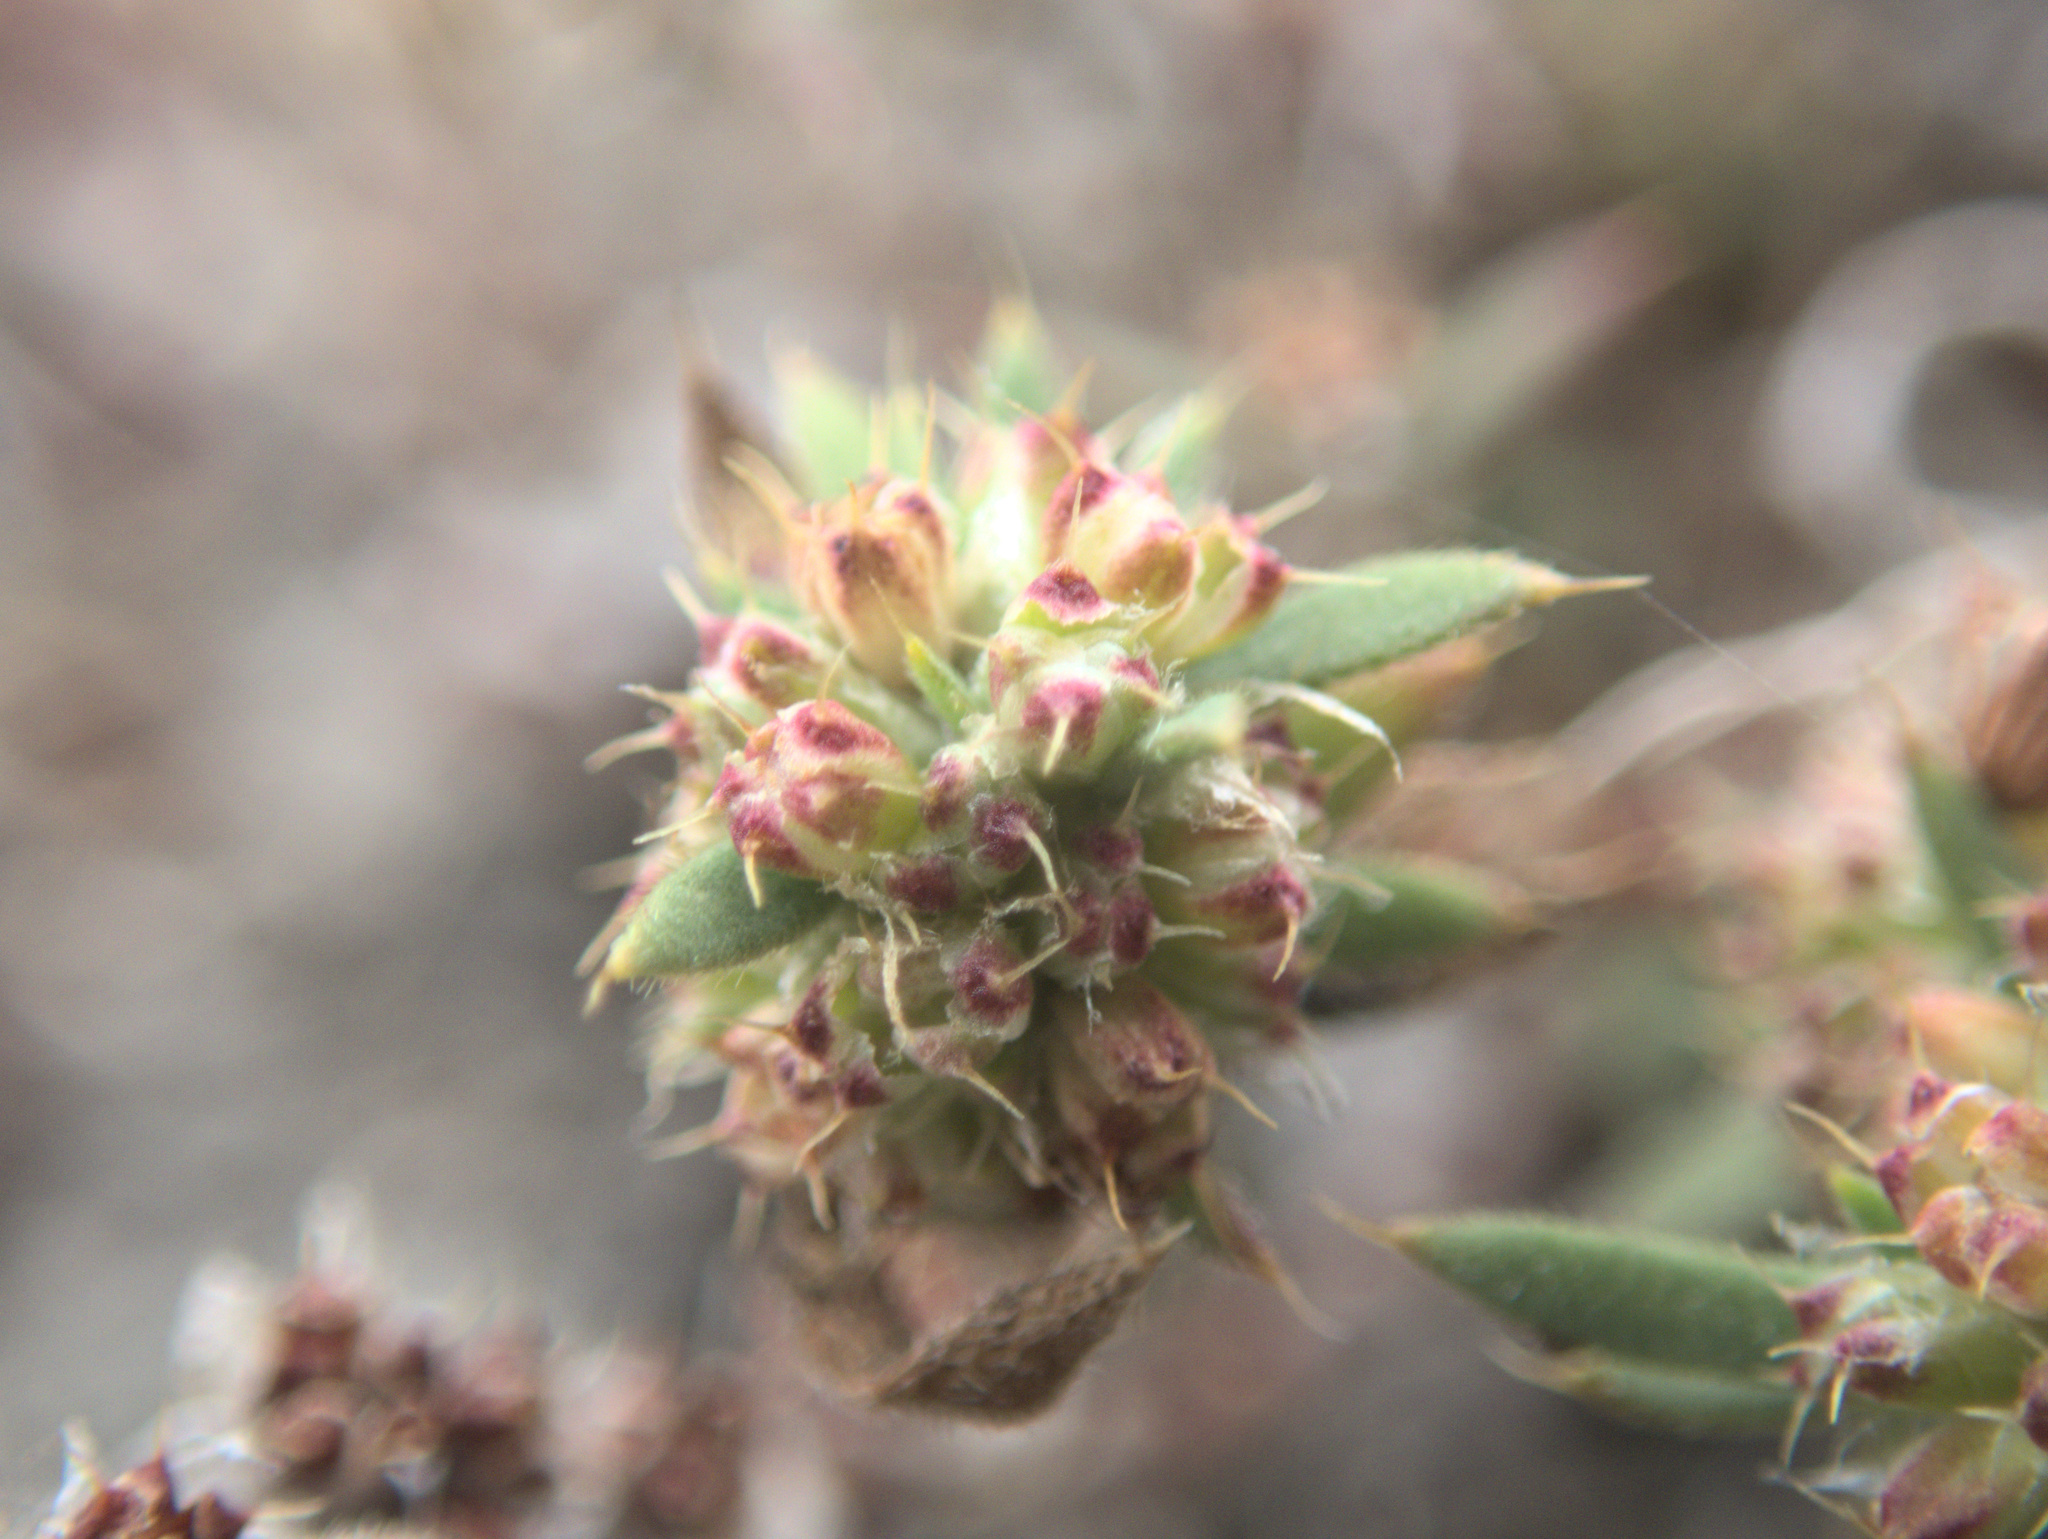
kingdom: Plantae
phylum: Tracheophyta
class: Magnoliopsida
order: Caryophyllales
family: Caryophyllaceae
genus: Paronychia
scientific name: Paronychia brasiliana
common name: Brazilian whitlow
